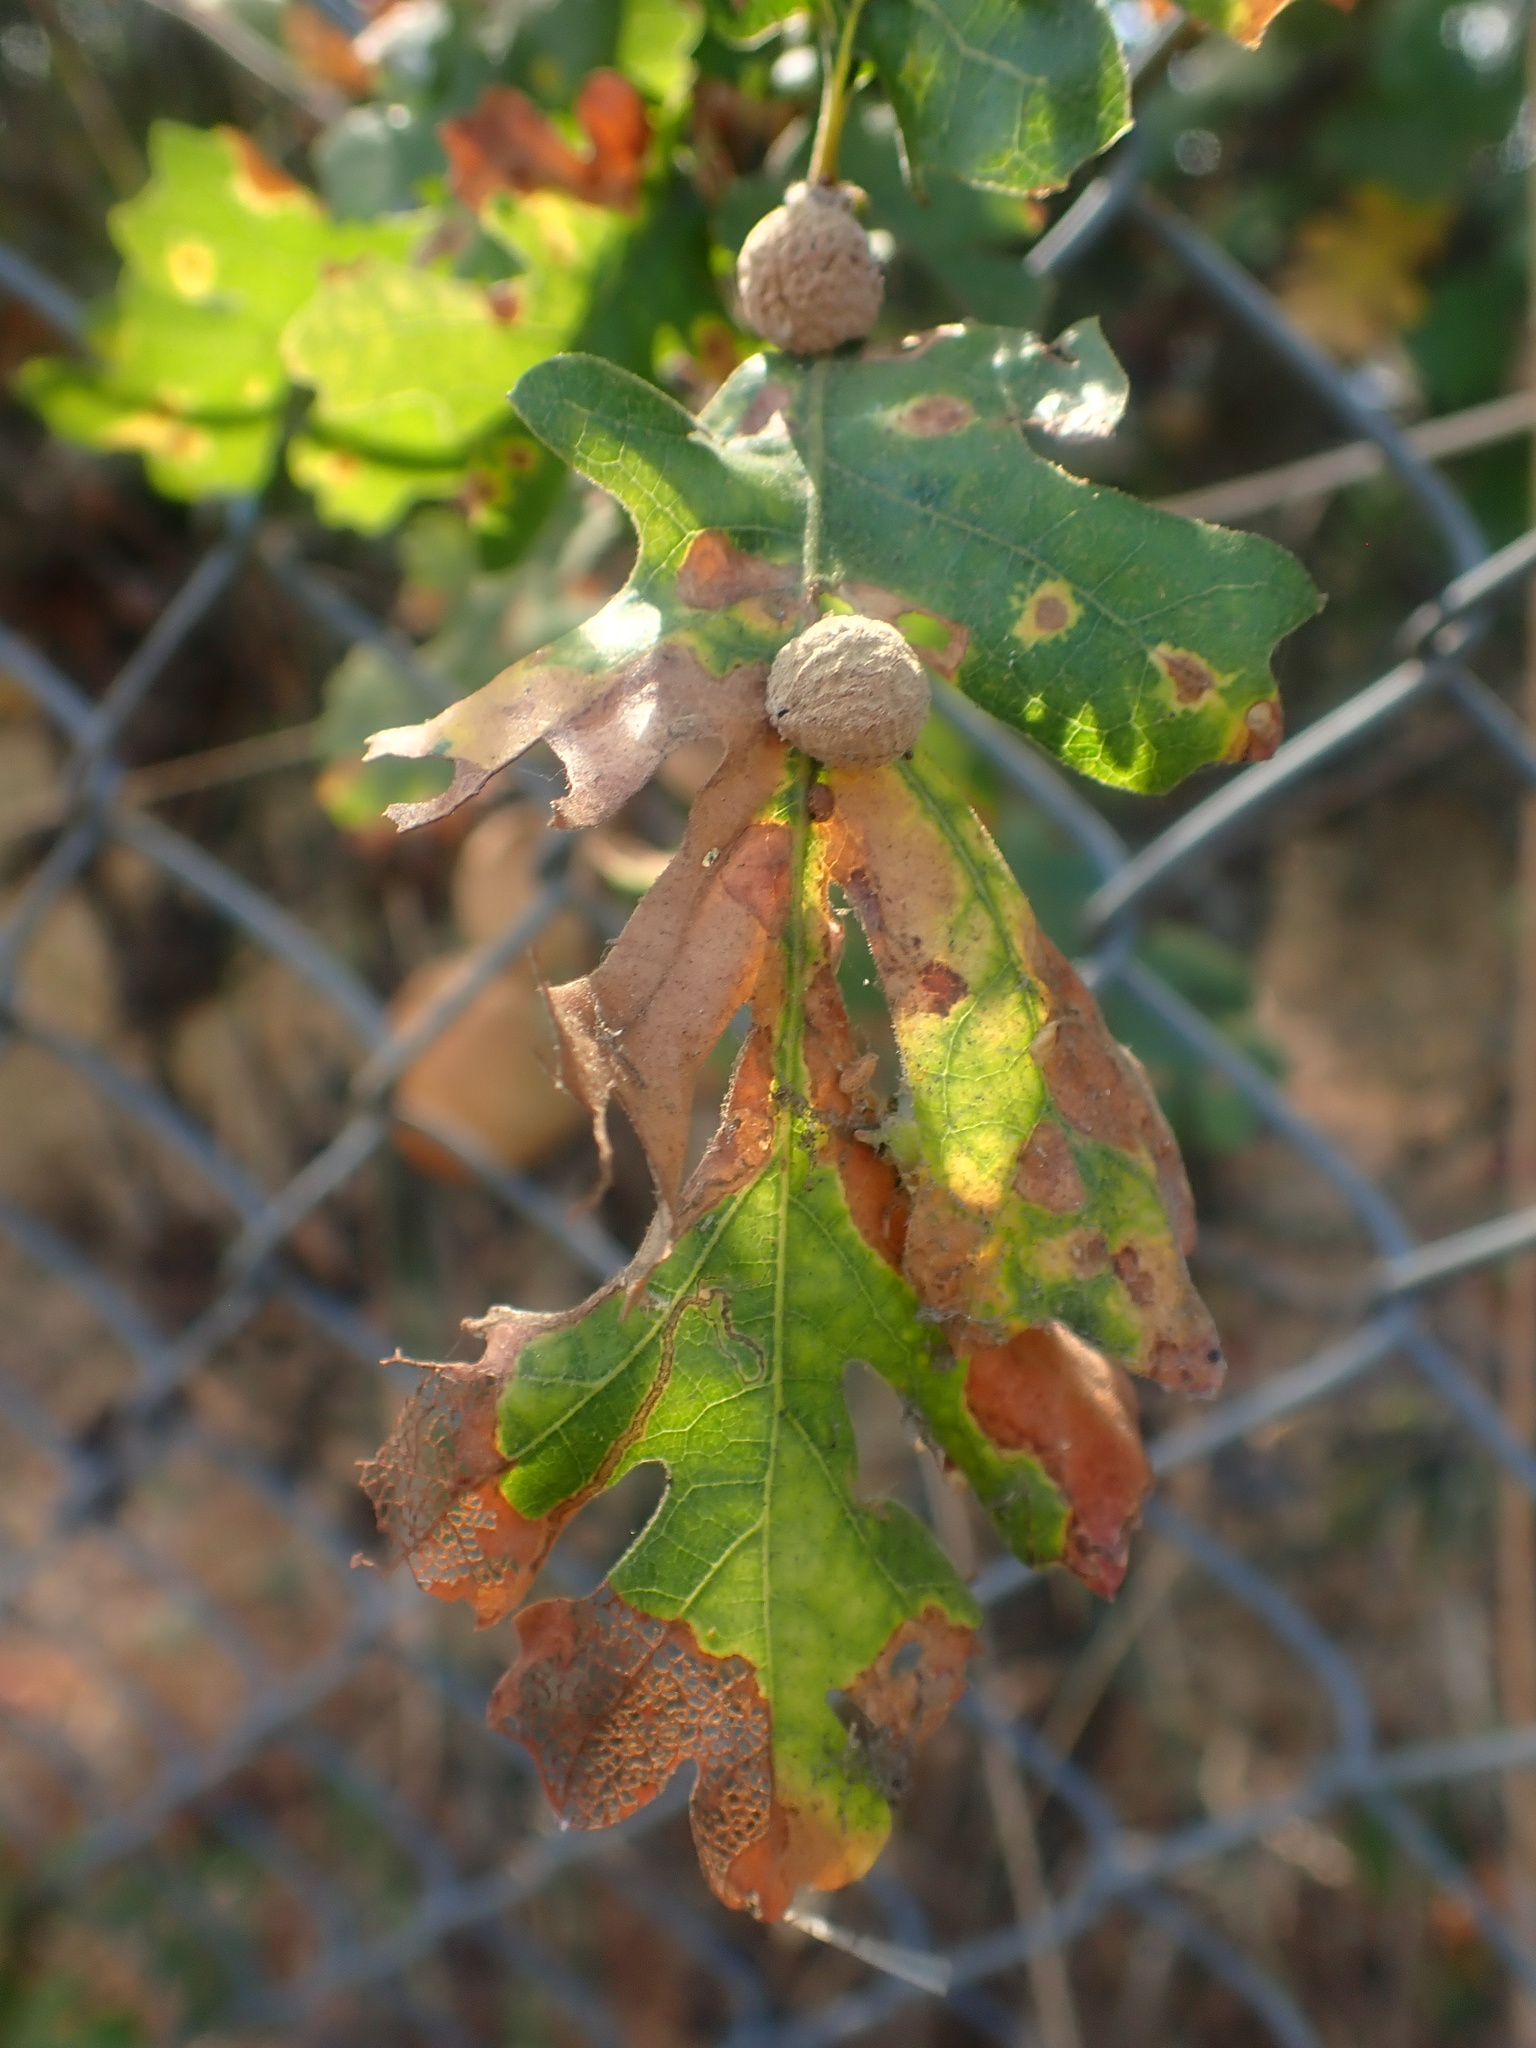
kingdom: Animalia
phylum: Arthropoda
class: Insecta
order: Hymenoptera
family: Cynipidae
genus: Cynips
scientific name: Cynips conspicua
